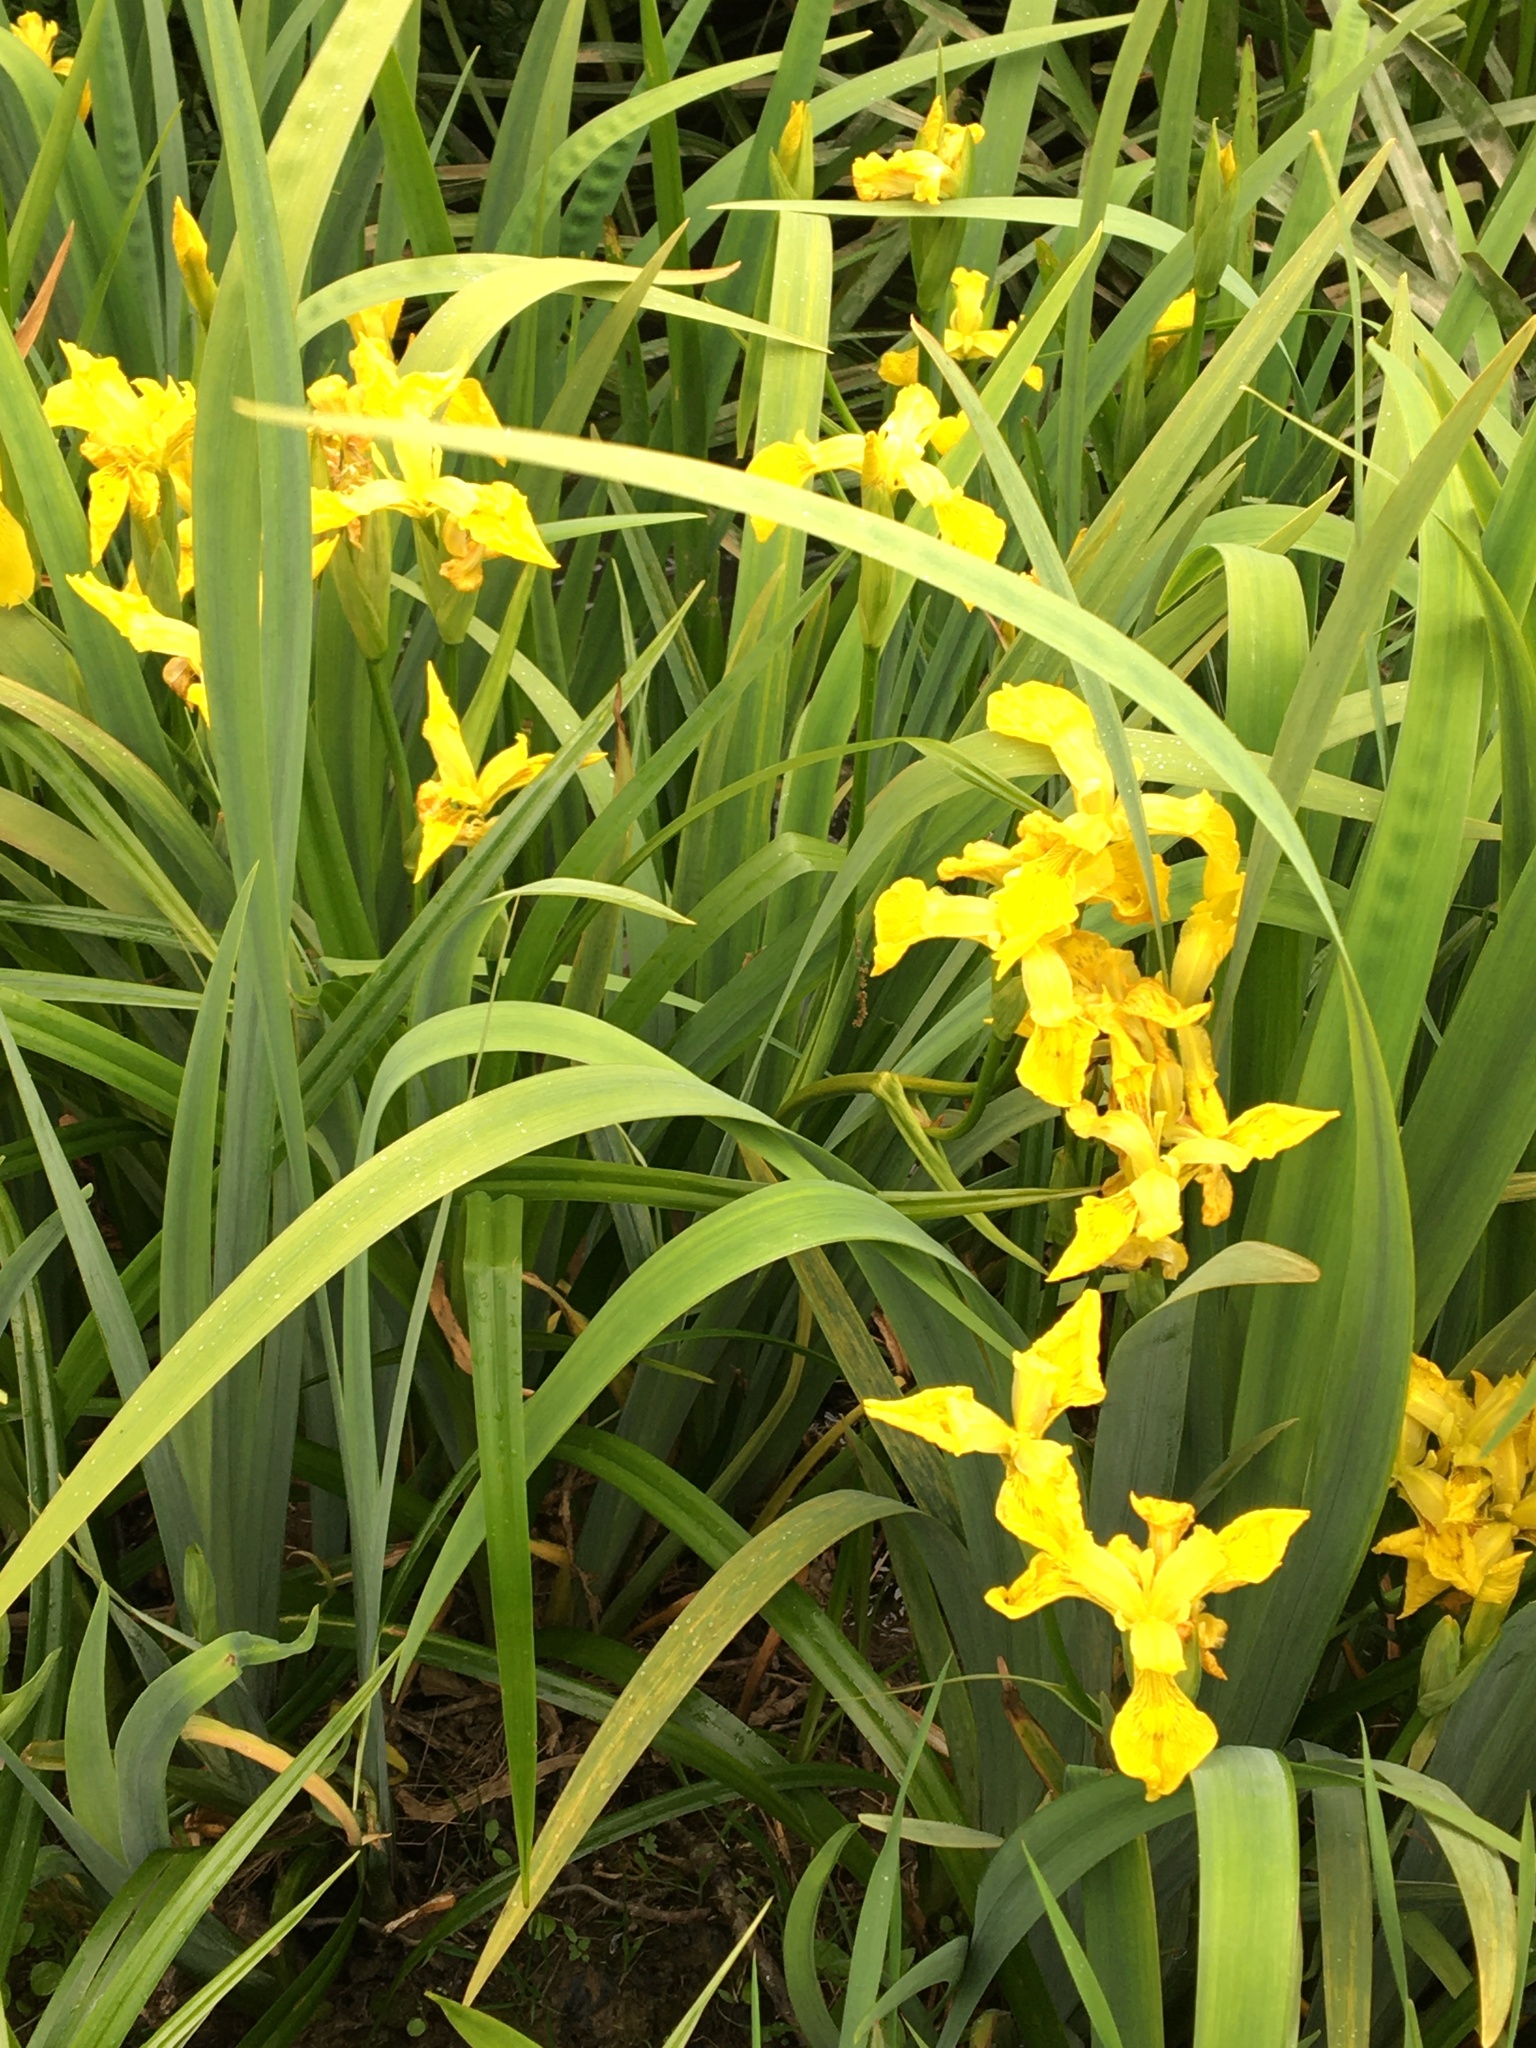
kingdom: Plantae
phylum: Tracheophyta
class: Liliopsida
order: Asparagales
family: Iridaceae
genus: Iris
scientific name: Iris pseudacorus
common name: Yellow flag
